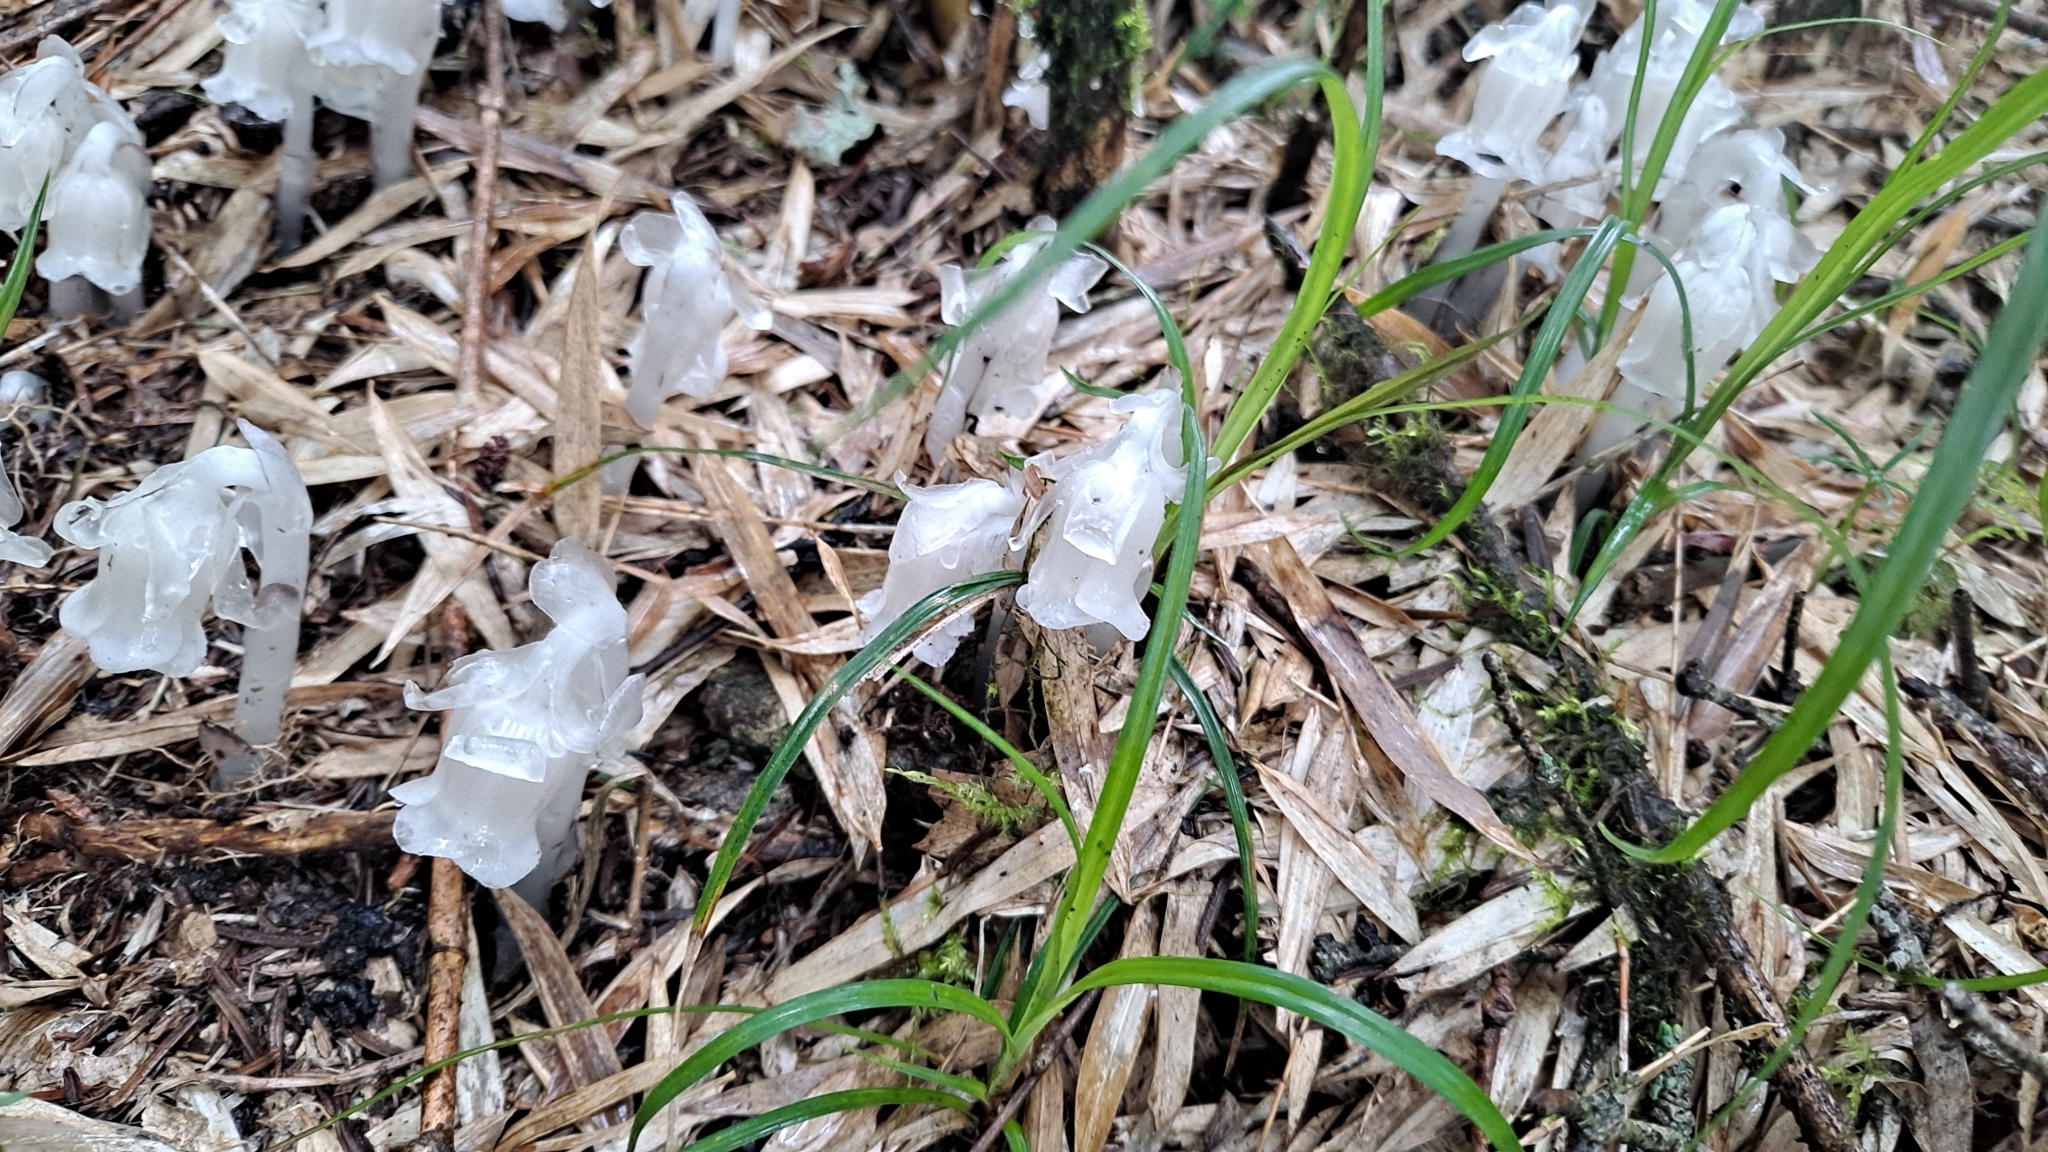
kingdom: Plantae
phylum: Tracheophyta
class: Magnoliopsida
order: Ericales
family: Ericaceae
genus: Monotropastrum
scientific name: Monotropastrum humile
